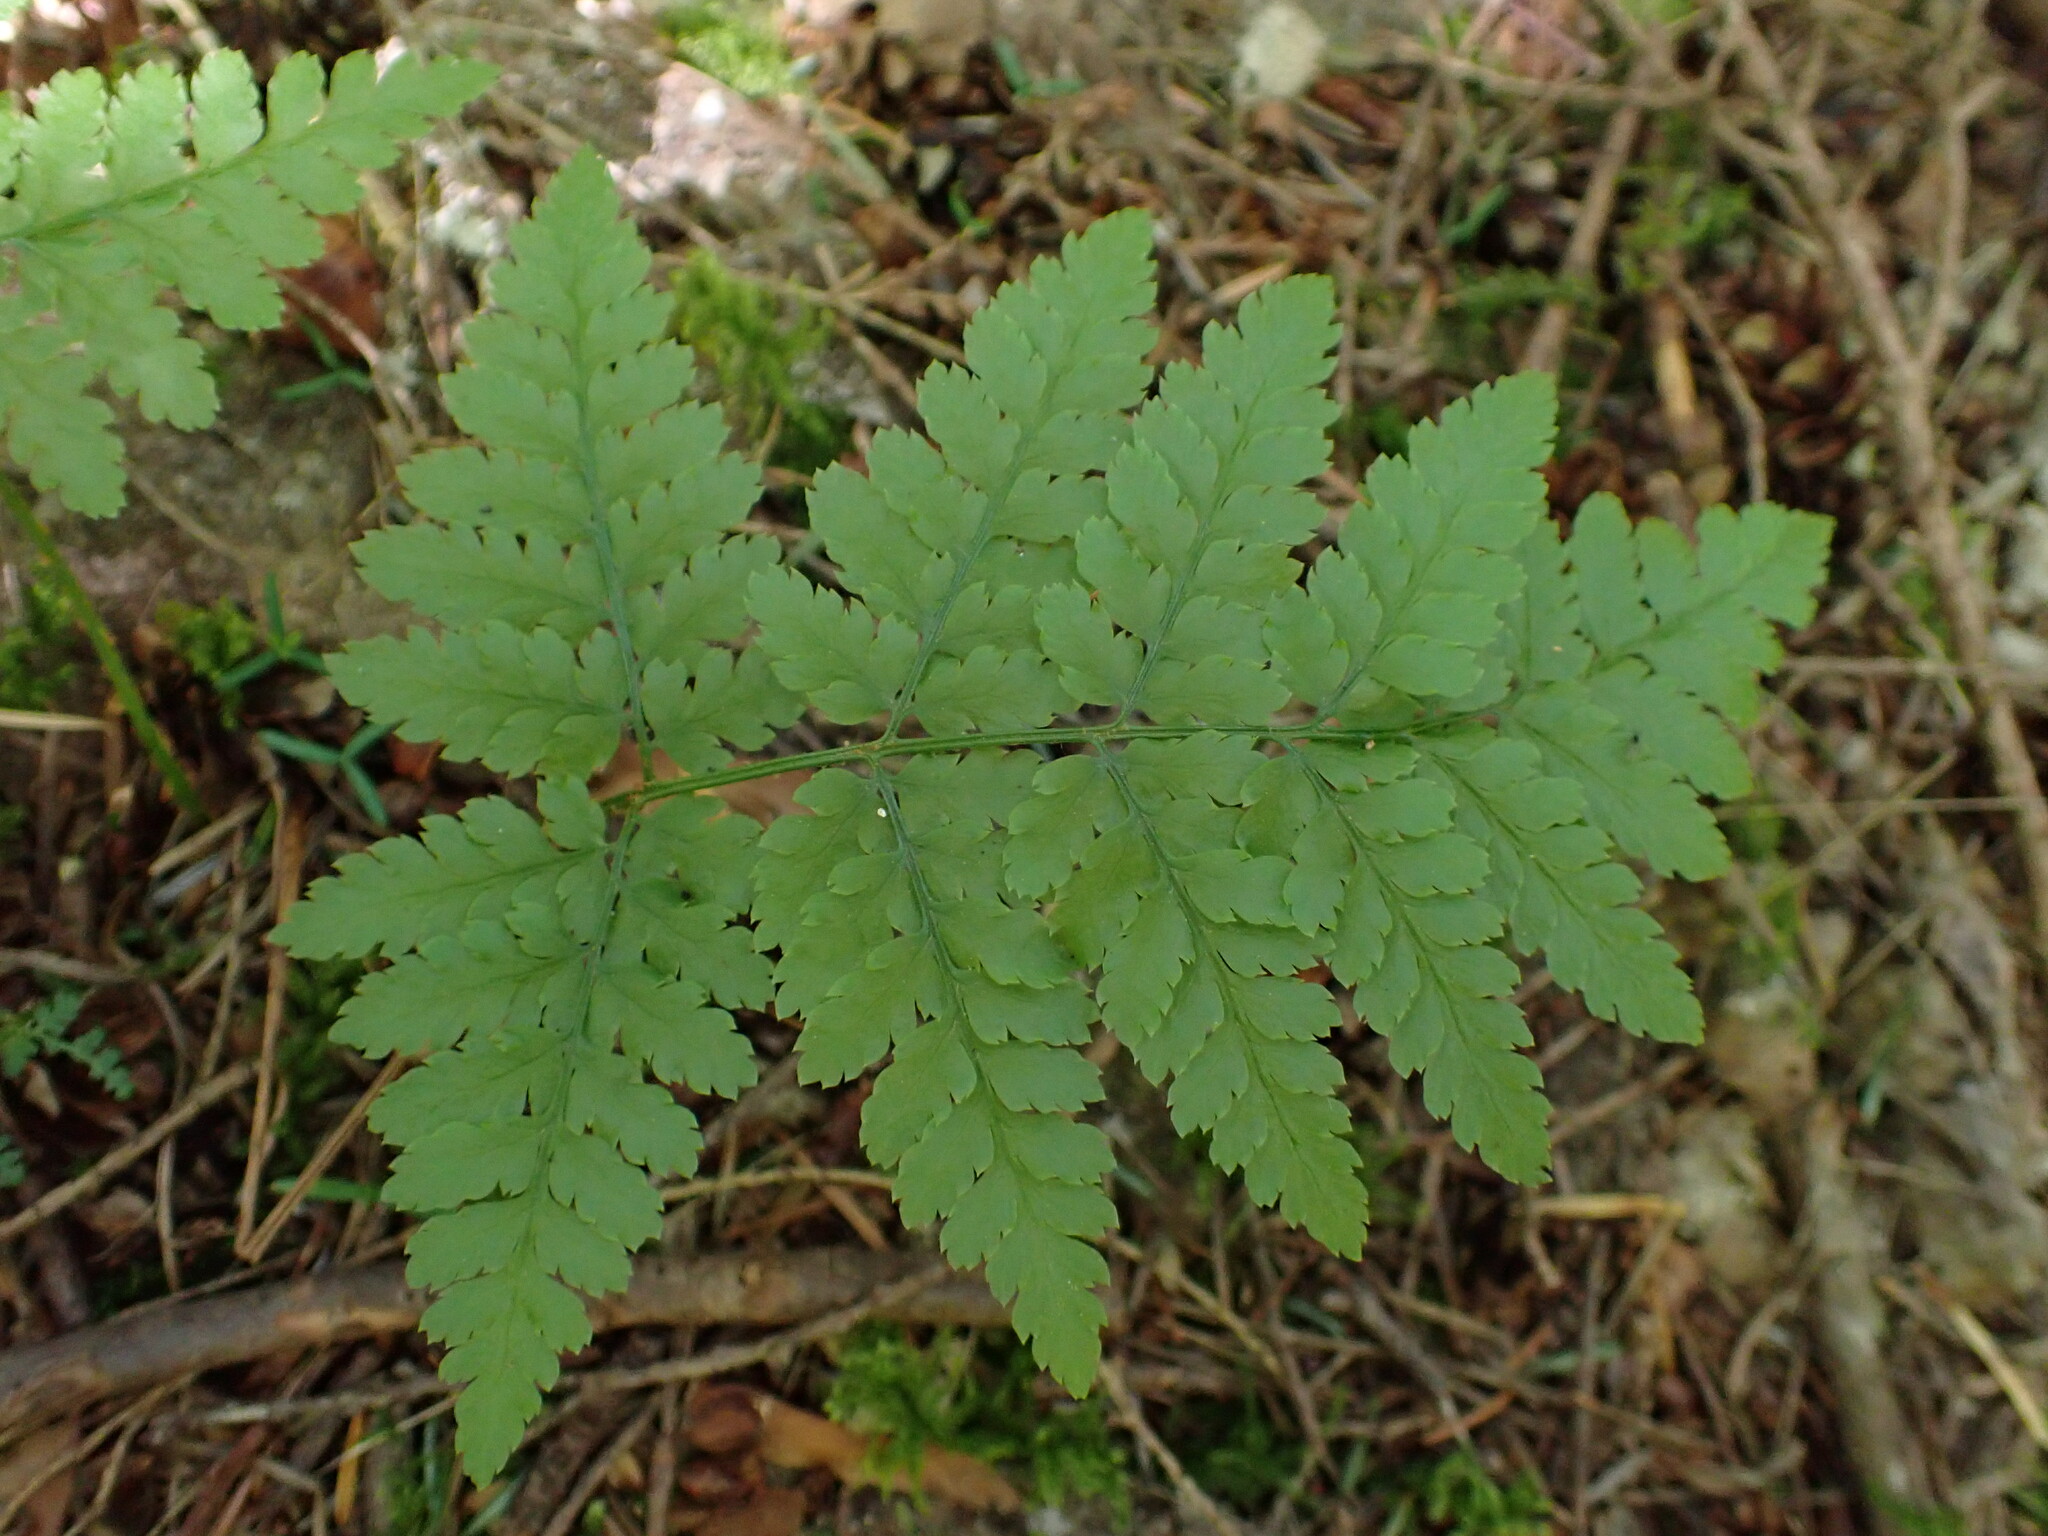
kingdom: Plantae
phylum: Tracheophyta
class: Polypodiopsida
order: Polypodiales
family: Dryopteridaceae
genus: Dryopteris
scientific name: Dryopteris expansa
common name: Northern buckler fern
